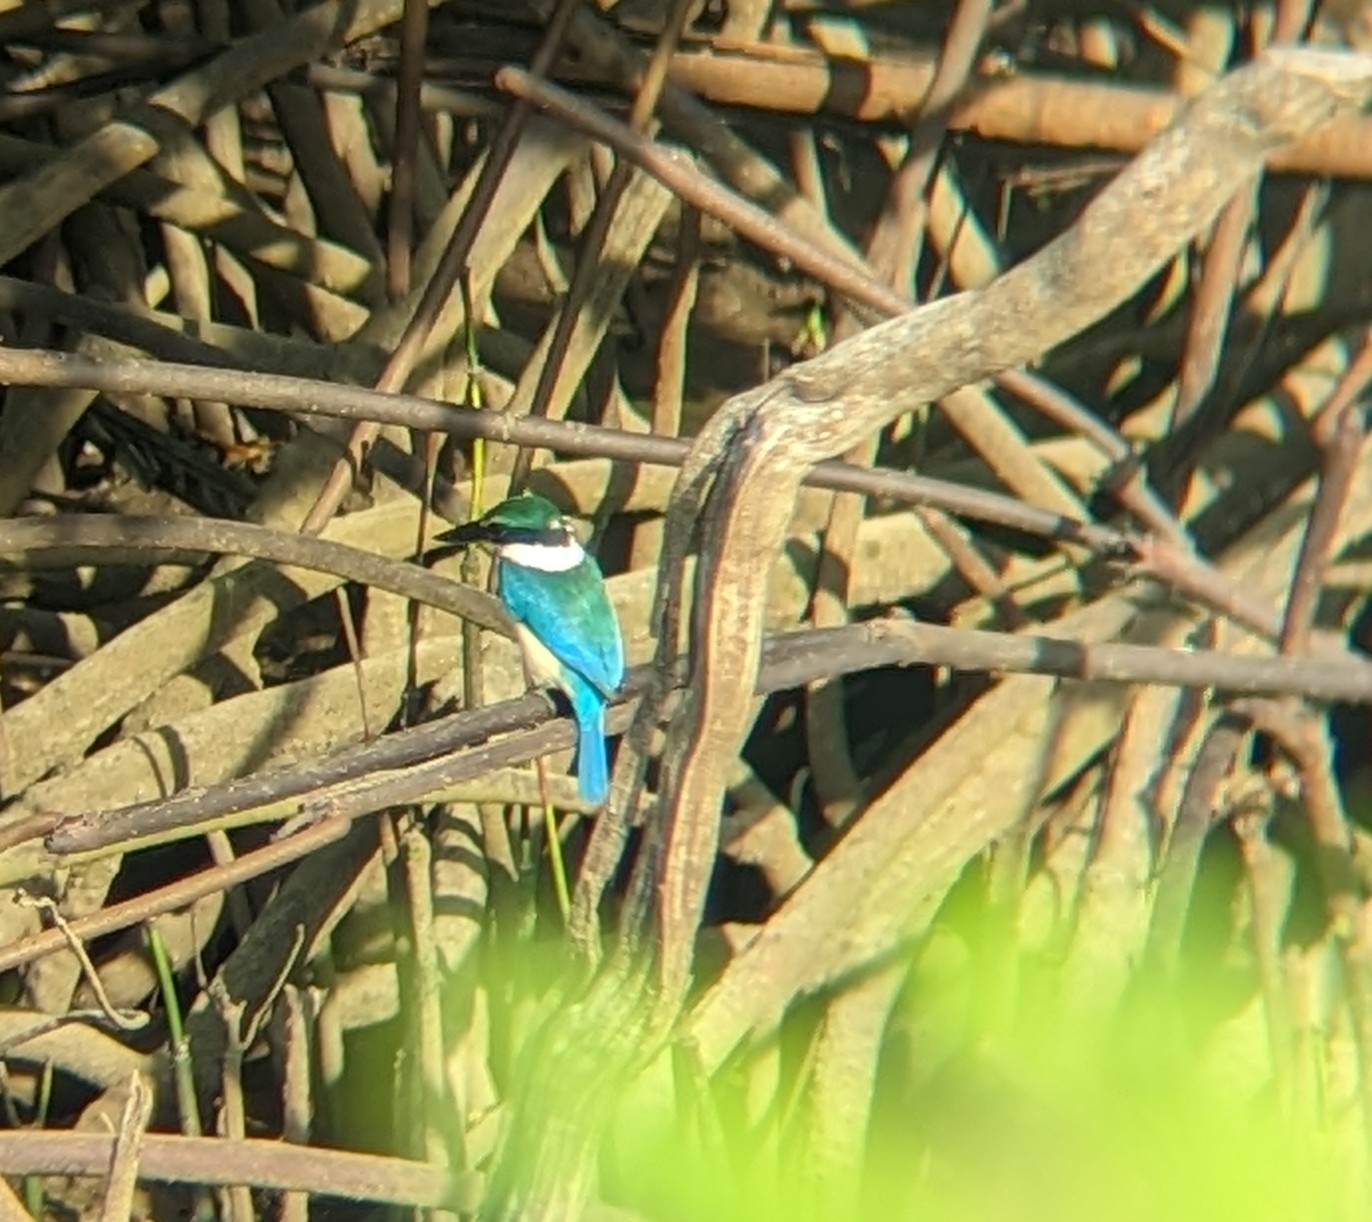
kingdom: Animalia
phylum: Chordata
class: Aves
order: Coraciiformes
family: Alcedinidae
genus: Todiramphus
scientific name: Todiramphus chloris
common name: Collared kingfisher
